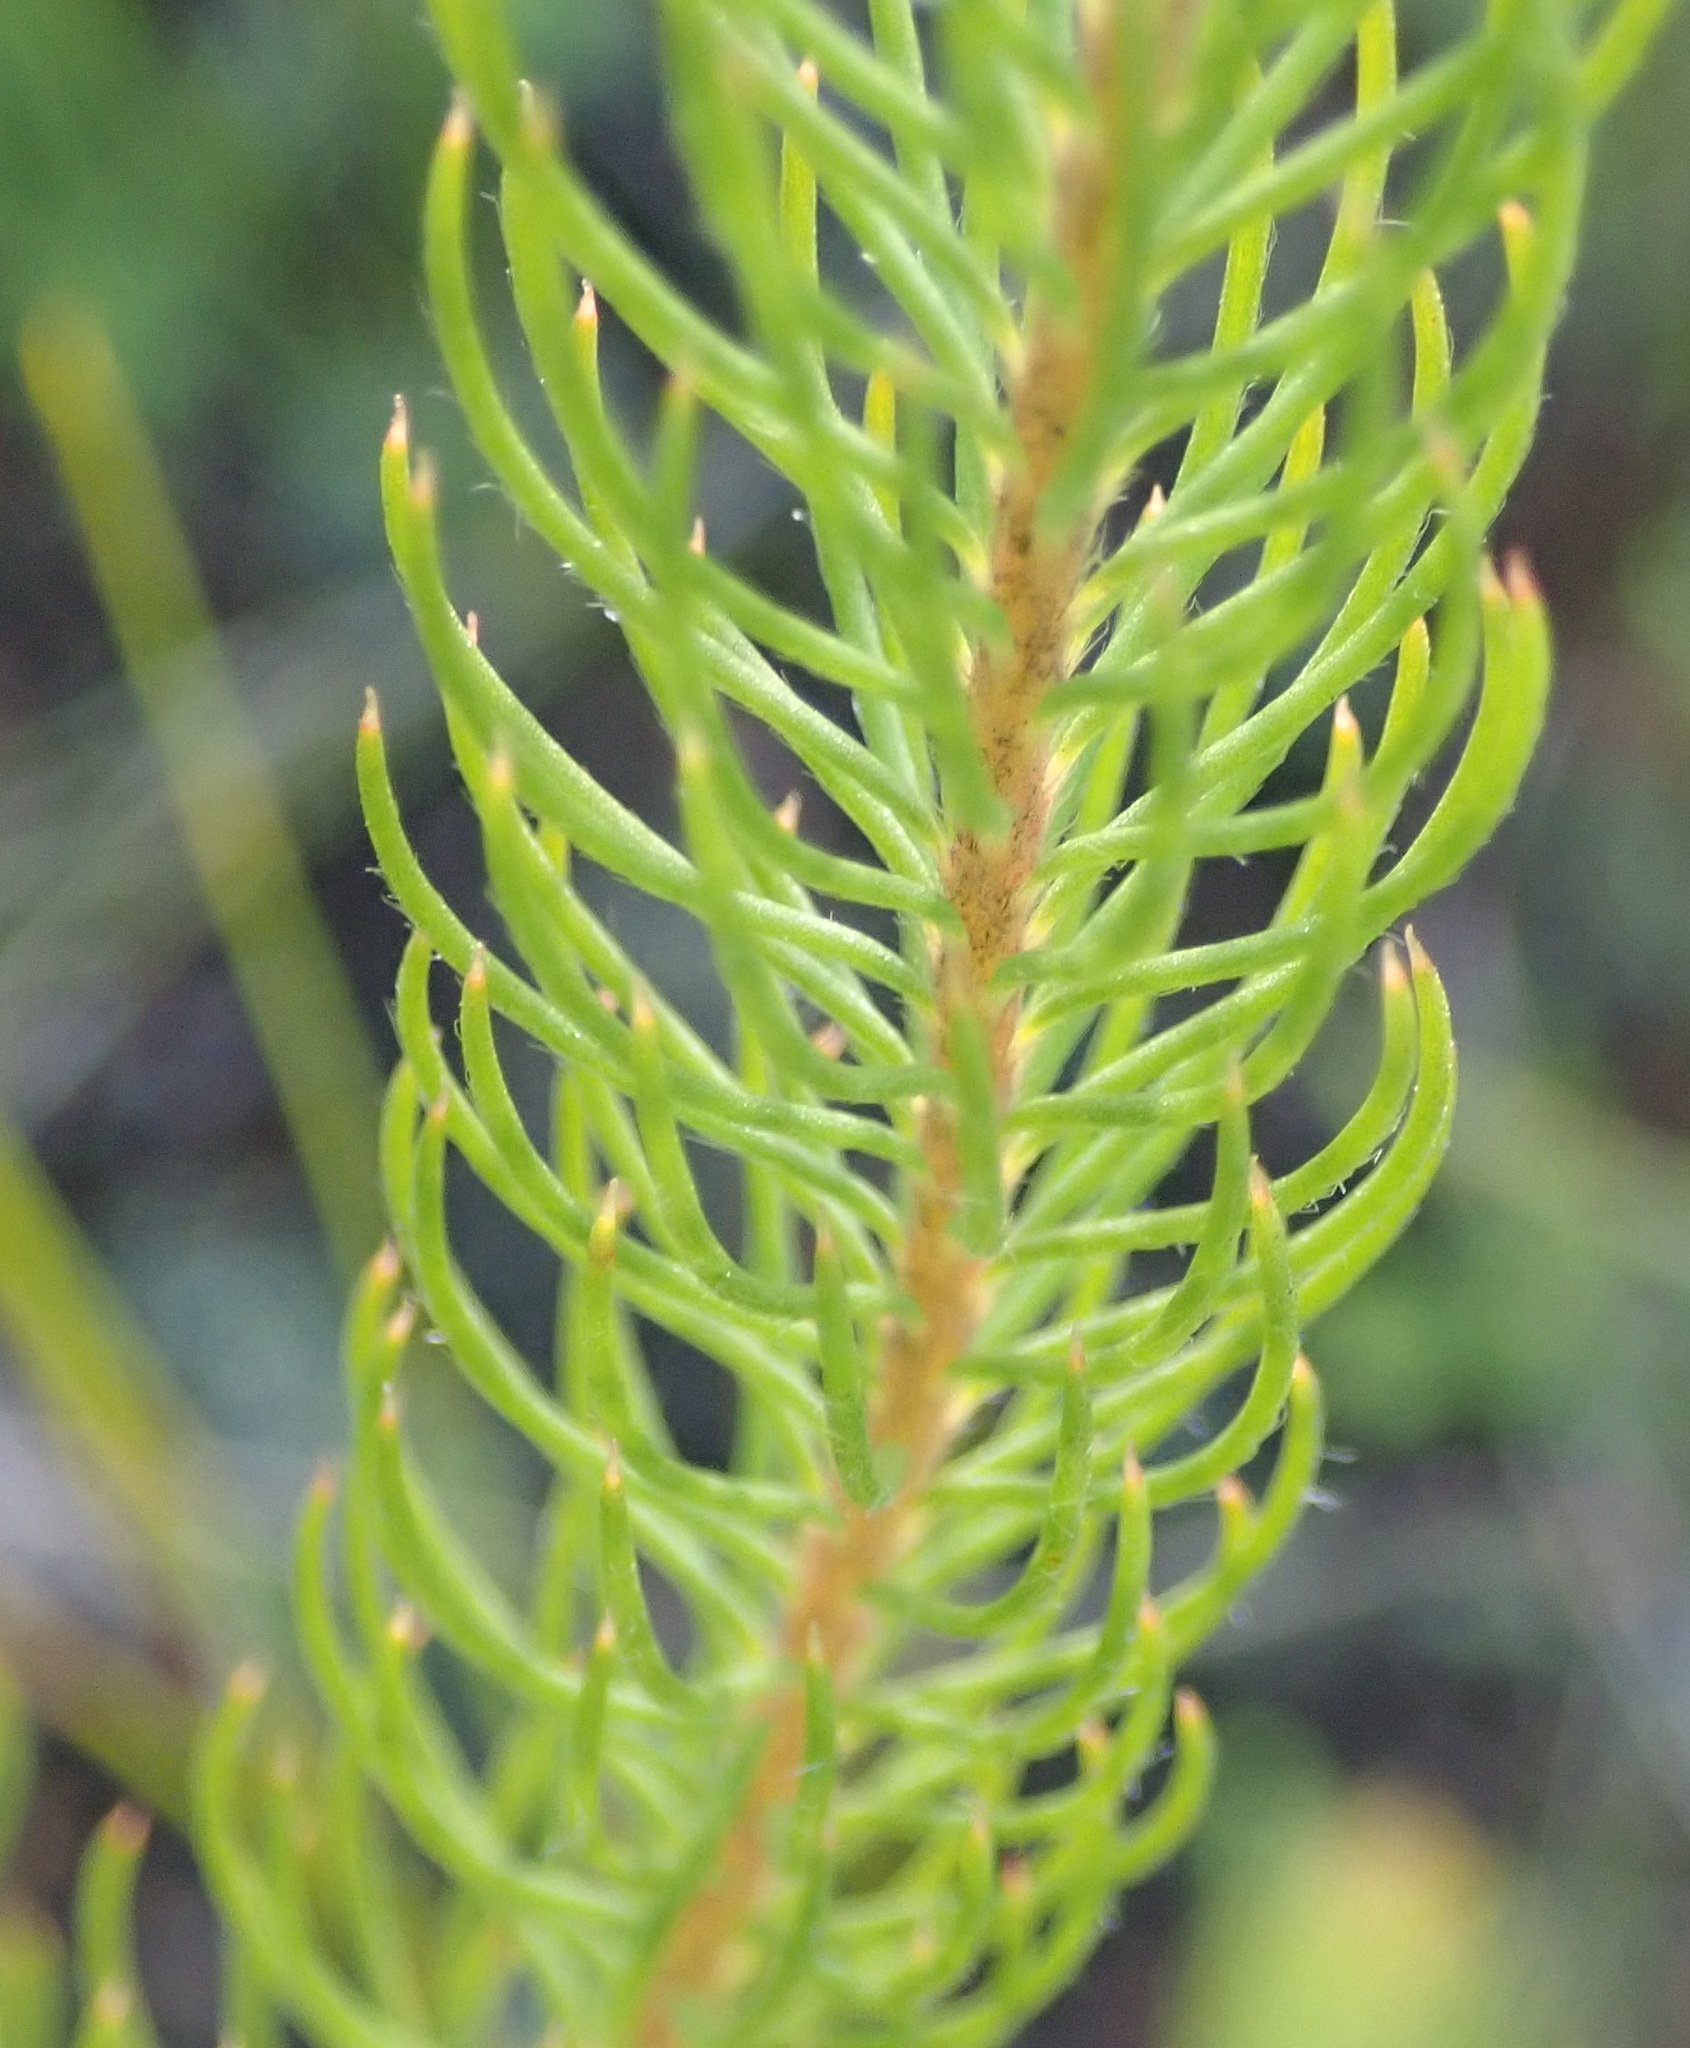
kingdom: Plantae
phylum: Tracheophyta
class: Magnoliopsida
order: Proteales
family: Proteaceae
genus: Spatalla
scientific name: Spatalla parilis
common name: Spike spoon
